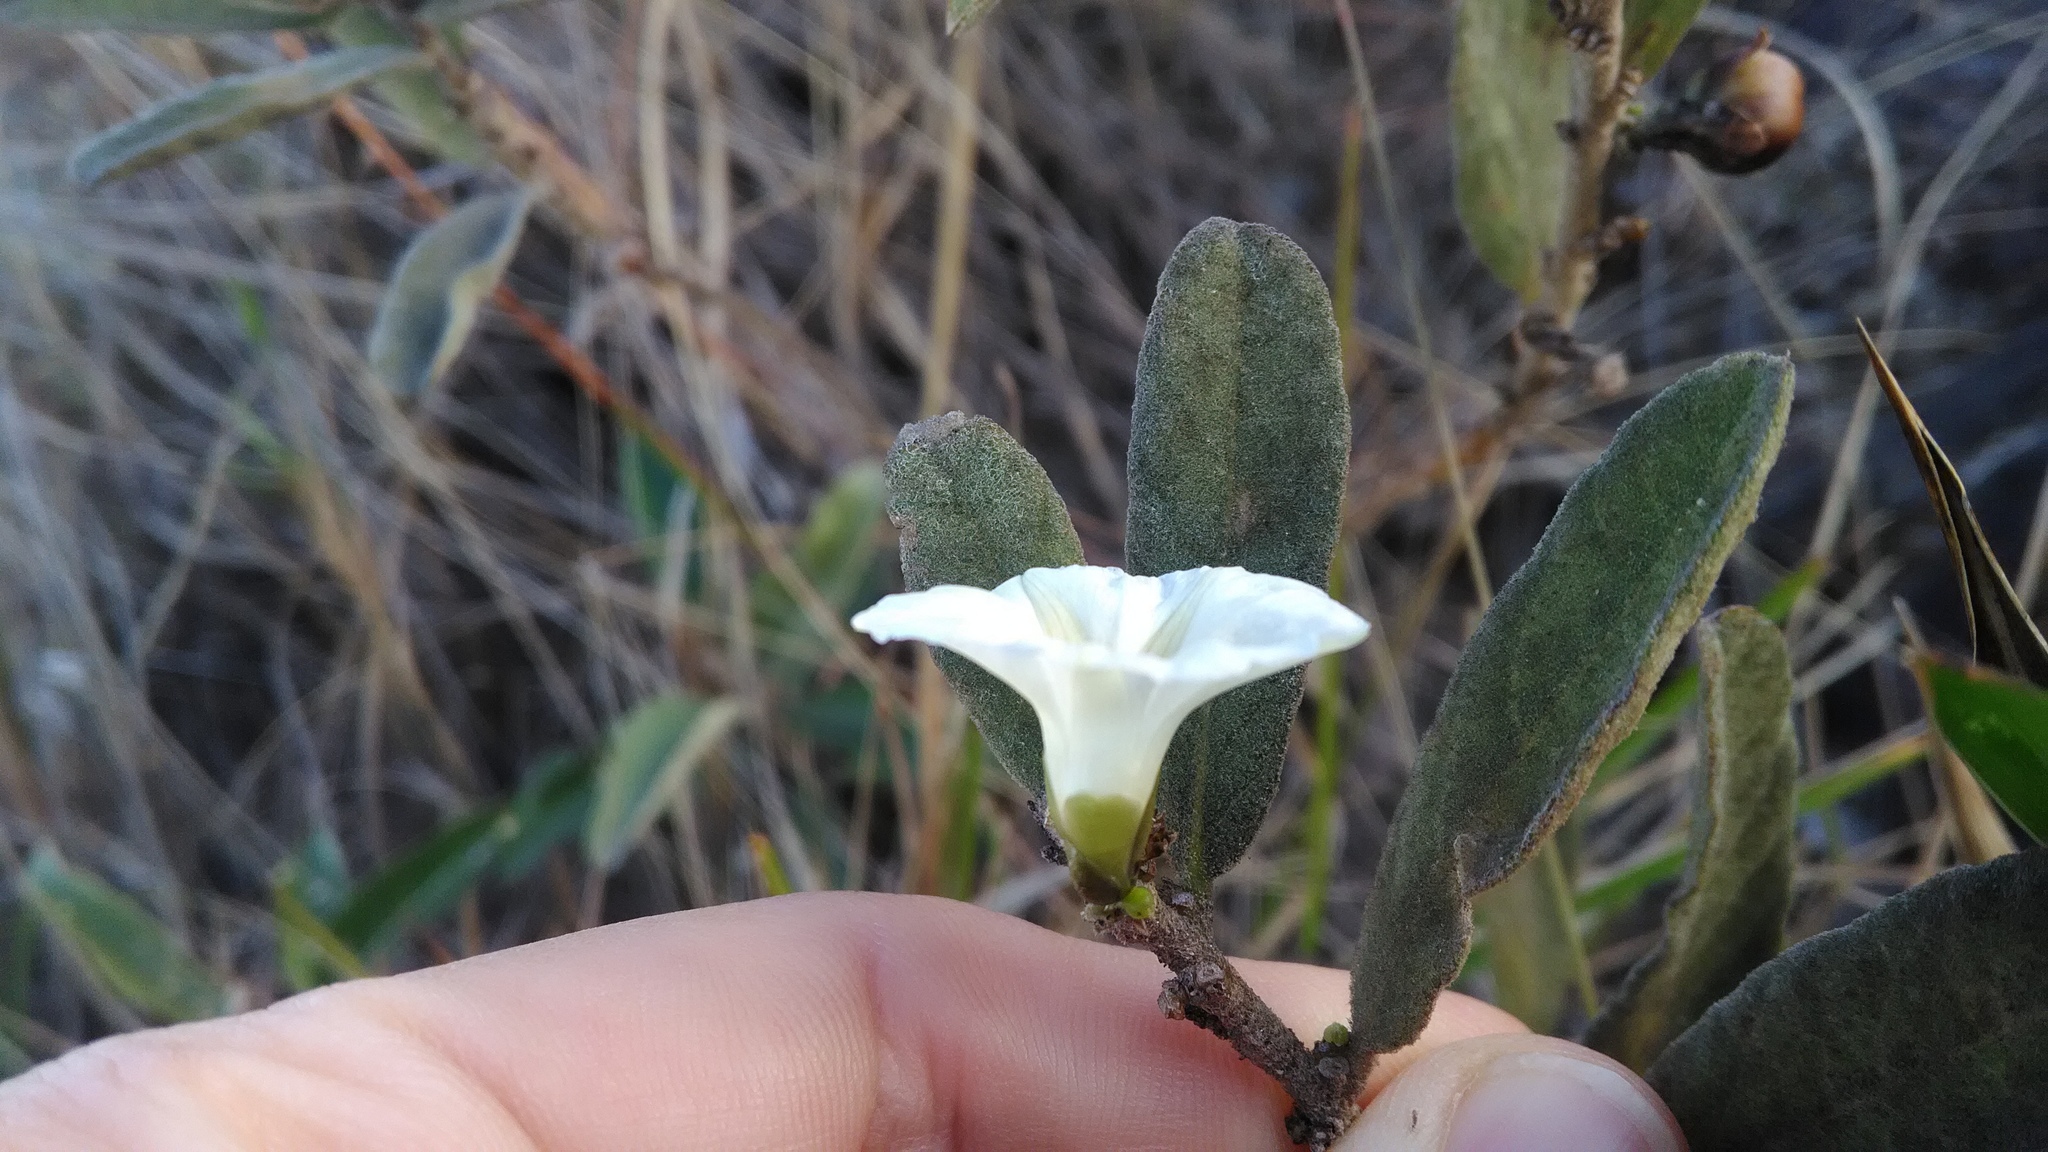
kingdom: Plantae
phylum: Tracheophyta
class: Magnoliopsida
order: Solanales
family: Convolvulaceae
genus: Distimake
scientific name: Distimake tomentosus
